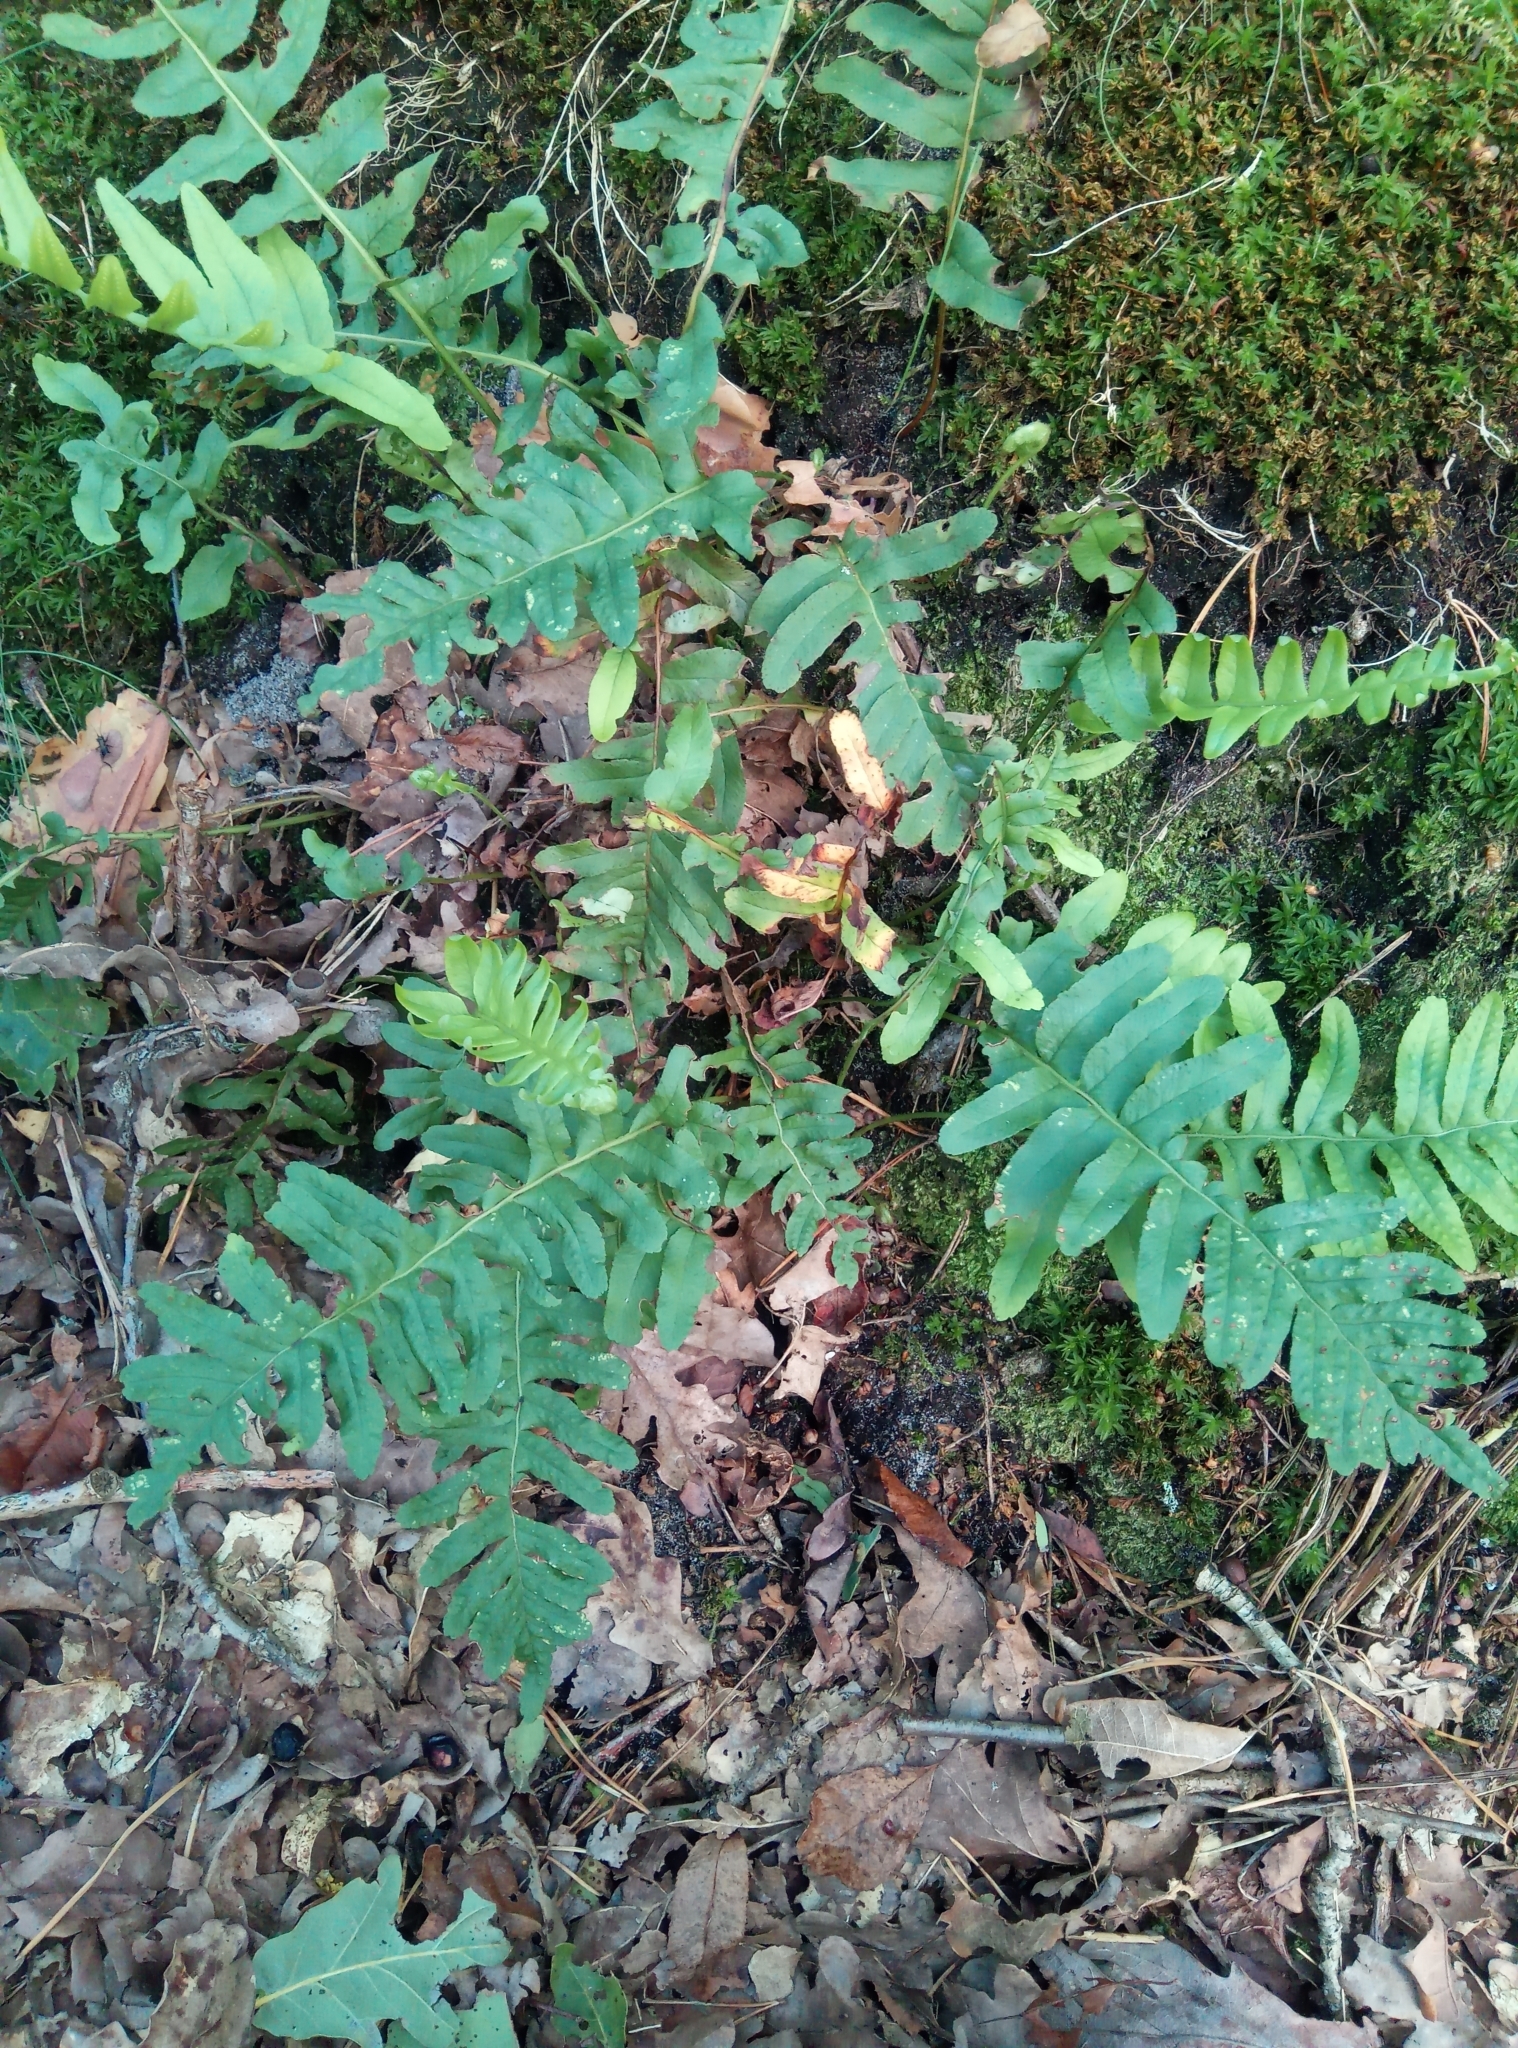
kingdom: Plantae
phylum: Tracheophyta
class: Polypodiopsida
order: Polypodiales
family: Polypodiaceae
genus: Polypodium
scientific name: Polypodium vulgare
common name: Common polypody
